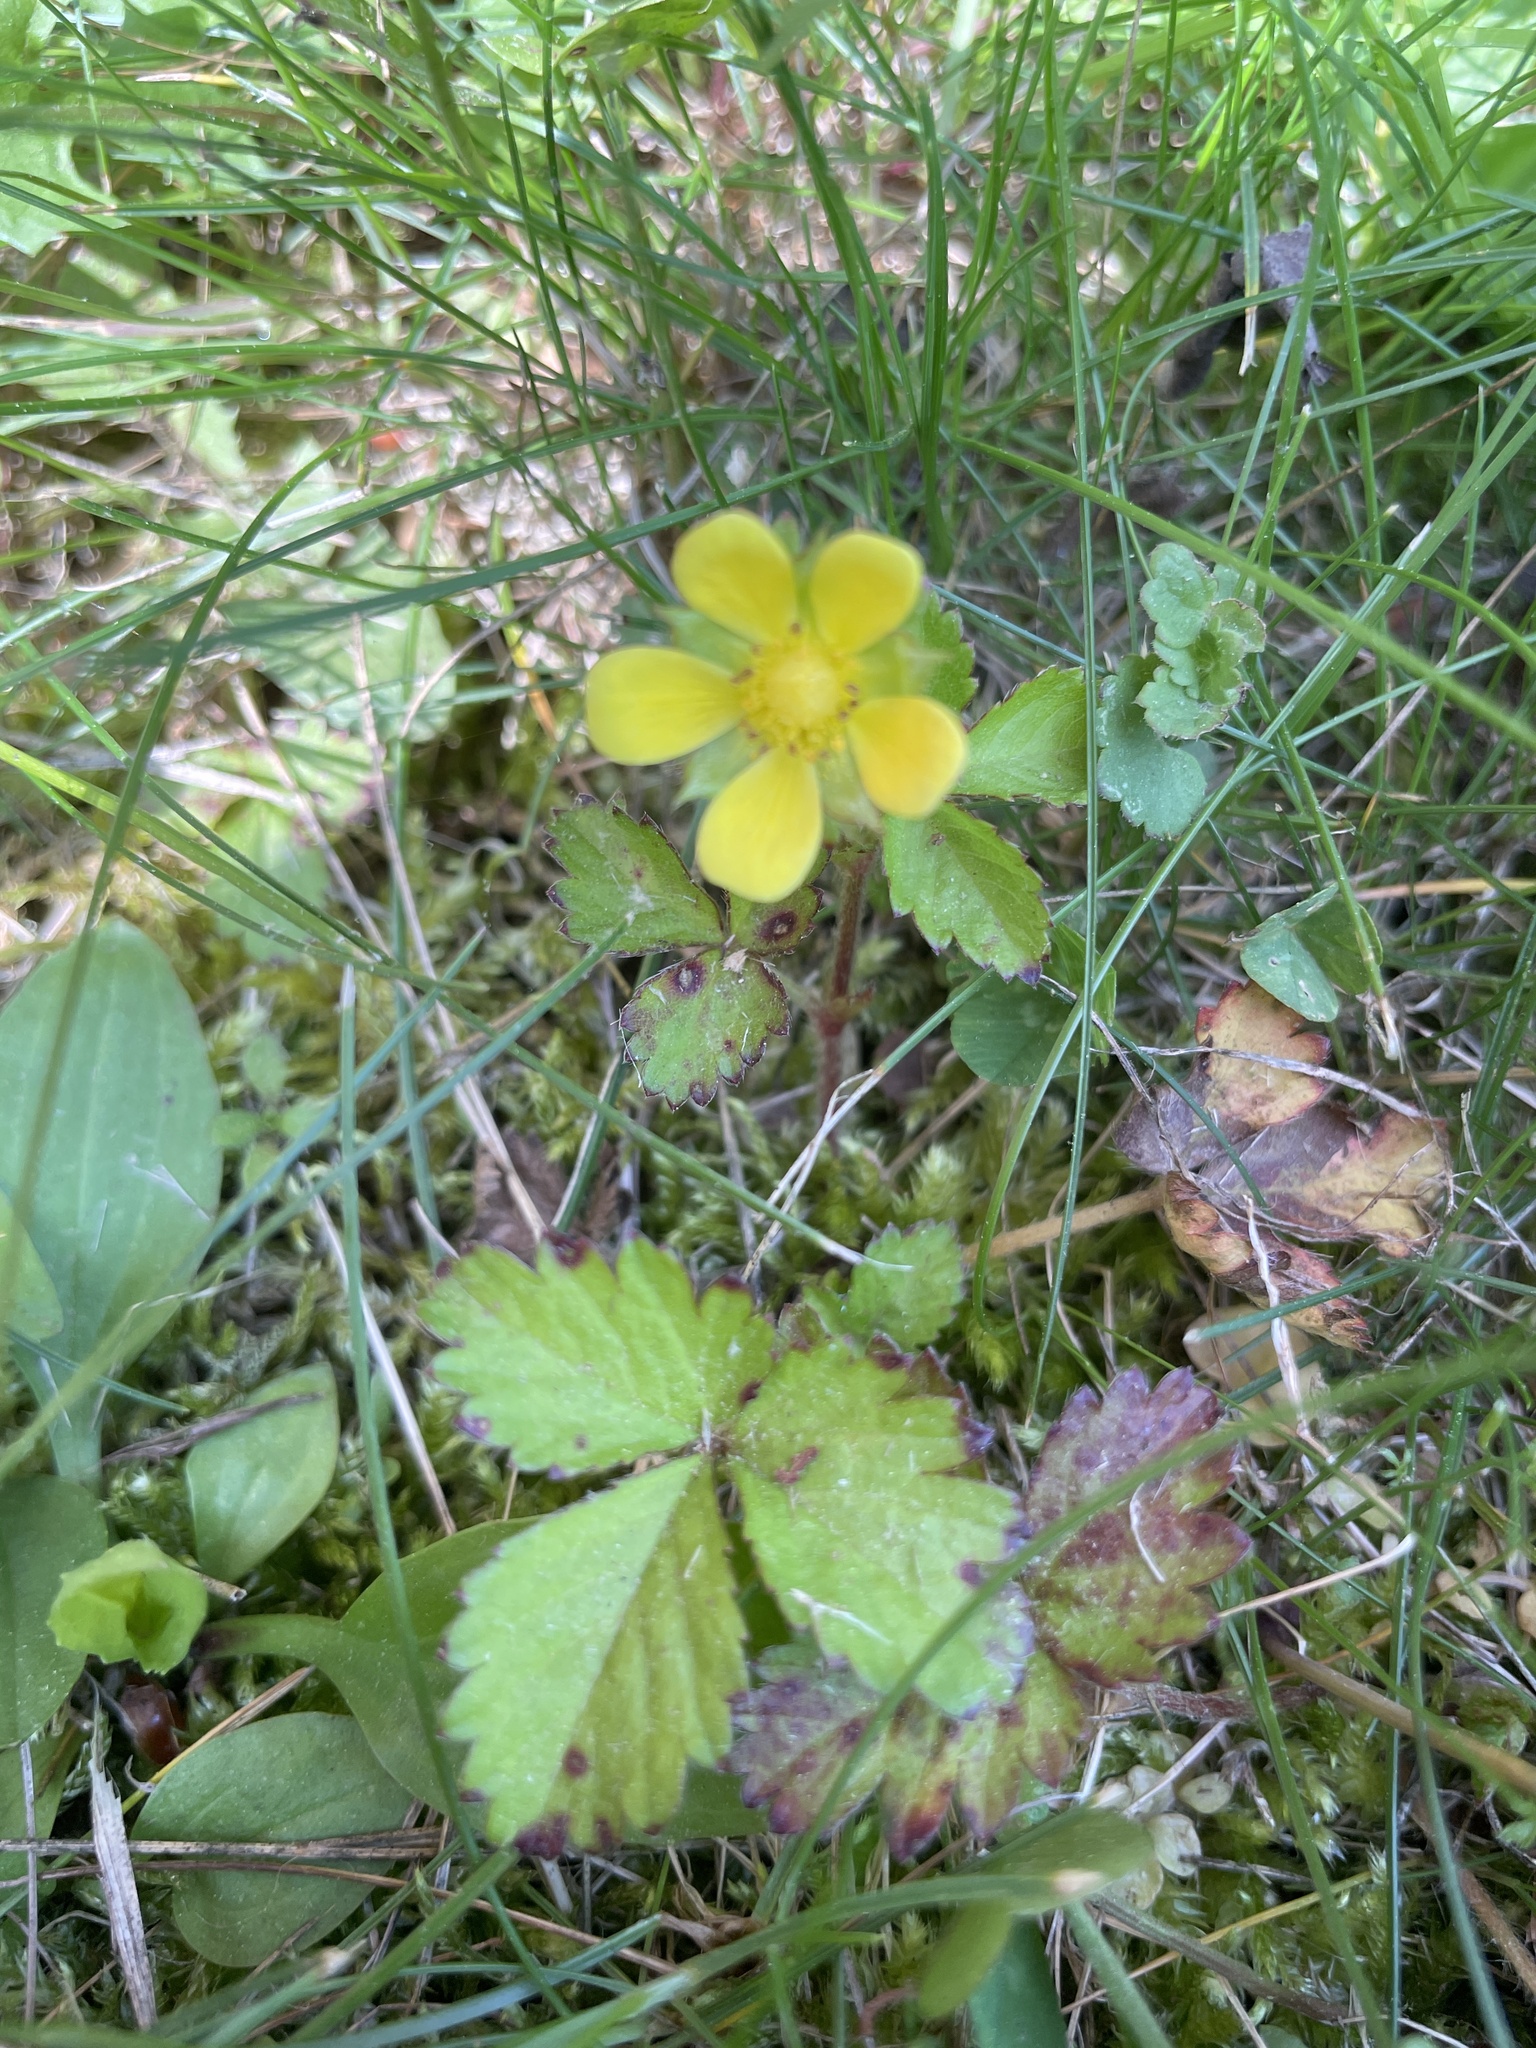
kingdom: Plantae
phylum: Tracheophyta
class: Magnoliopsida
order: Rosales
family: Rosaceae
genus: Potentilla
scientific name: Potentilla indica
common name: Yellow-flowered strawberry
